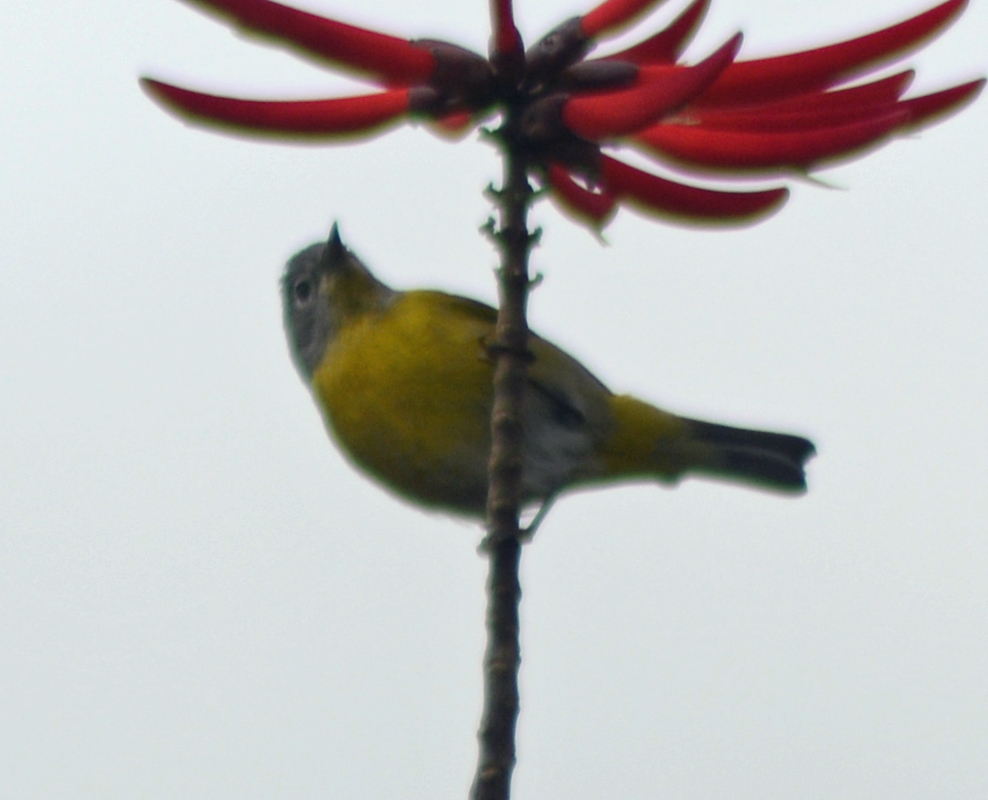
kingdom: Animalia
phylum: Chordata
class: Aves
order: Passeriformes
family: Parulidae
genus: Leiothlypis
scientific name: Leiothlypis ruficapilla
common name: Nashville warbler
